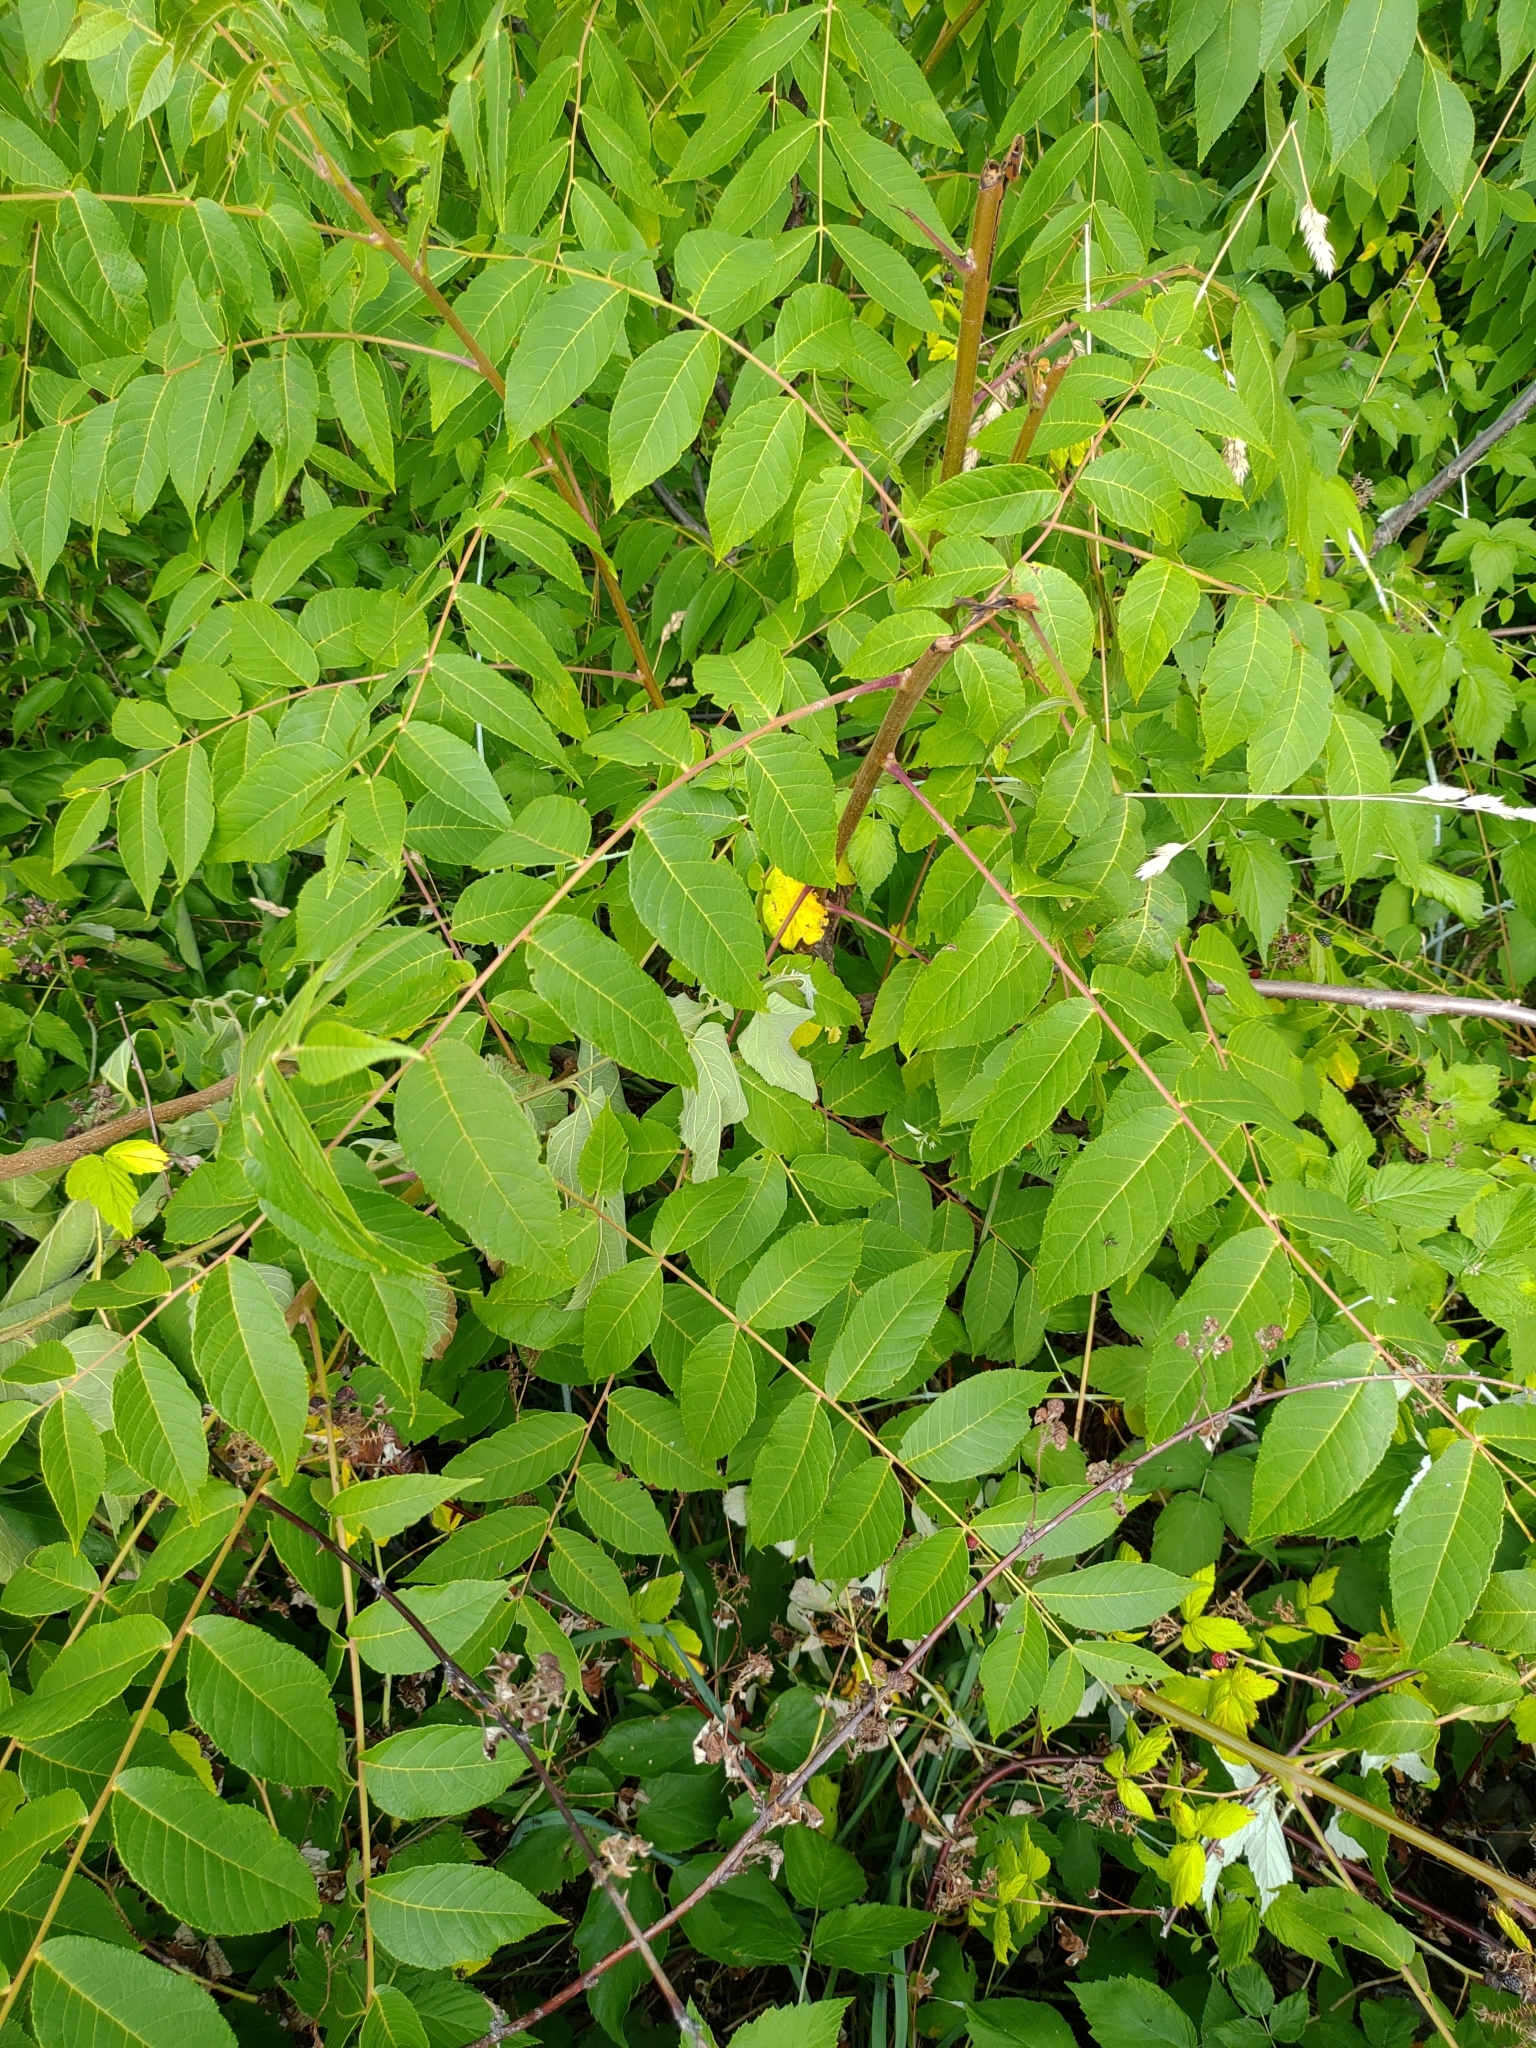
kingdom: Plantae
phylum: Tracheophyta
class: Magnoliopsida
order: Fagales
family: Juglandaceae
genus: Juglans
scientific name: Juglans nigra
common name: Black walnut
